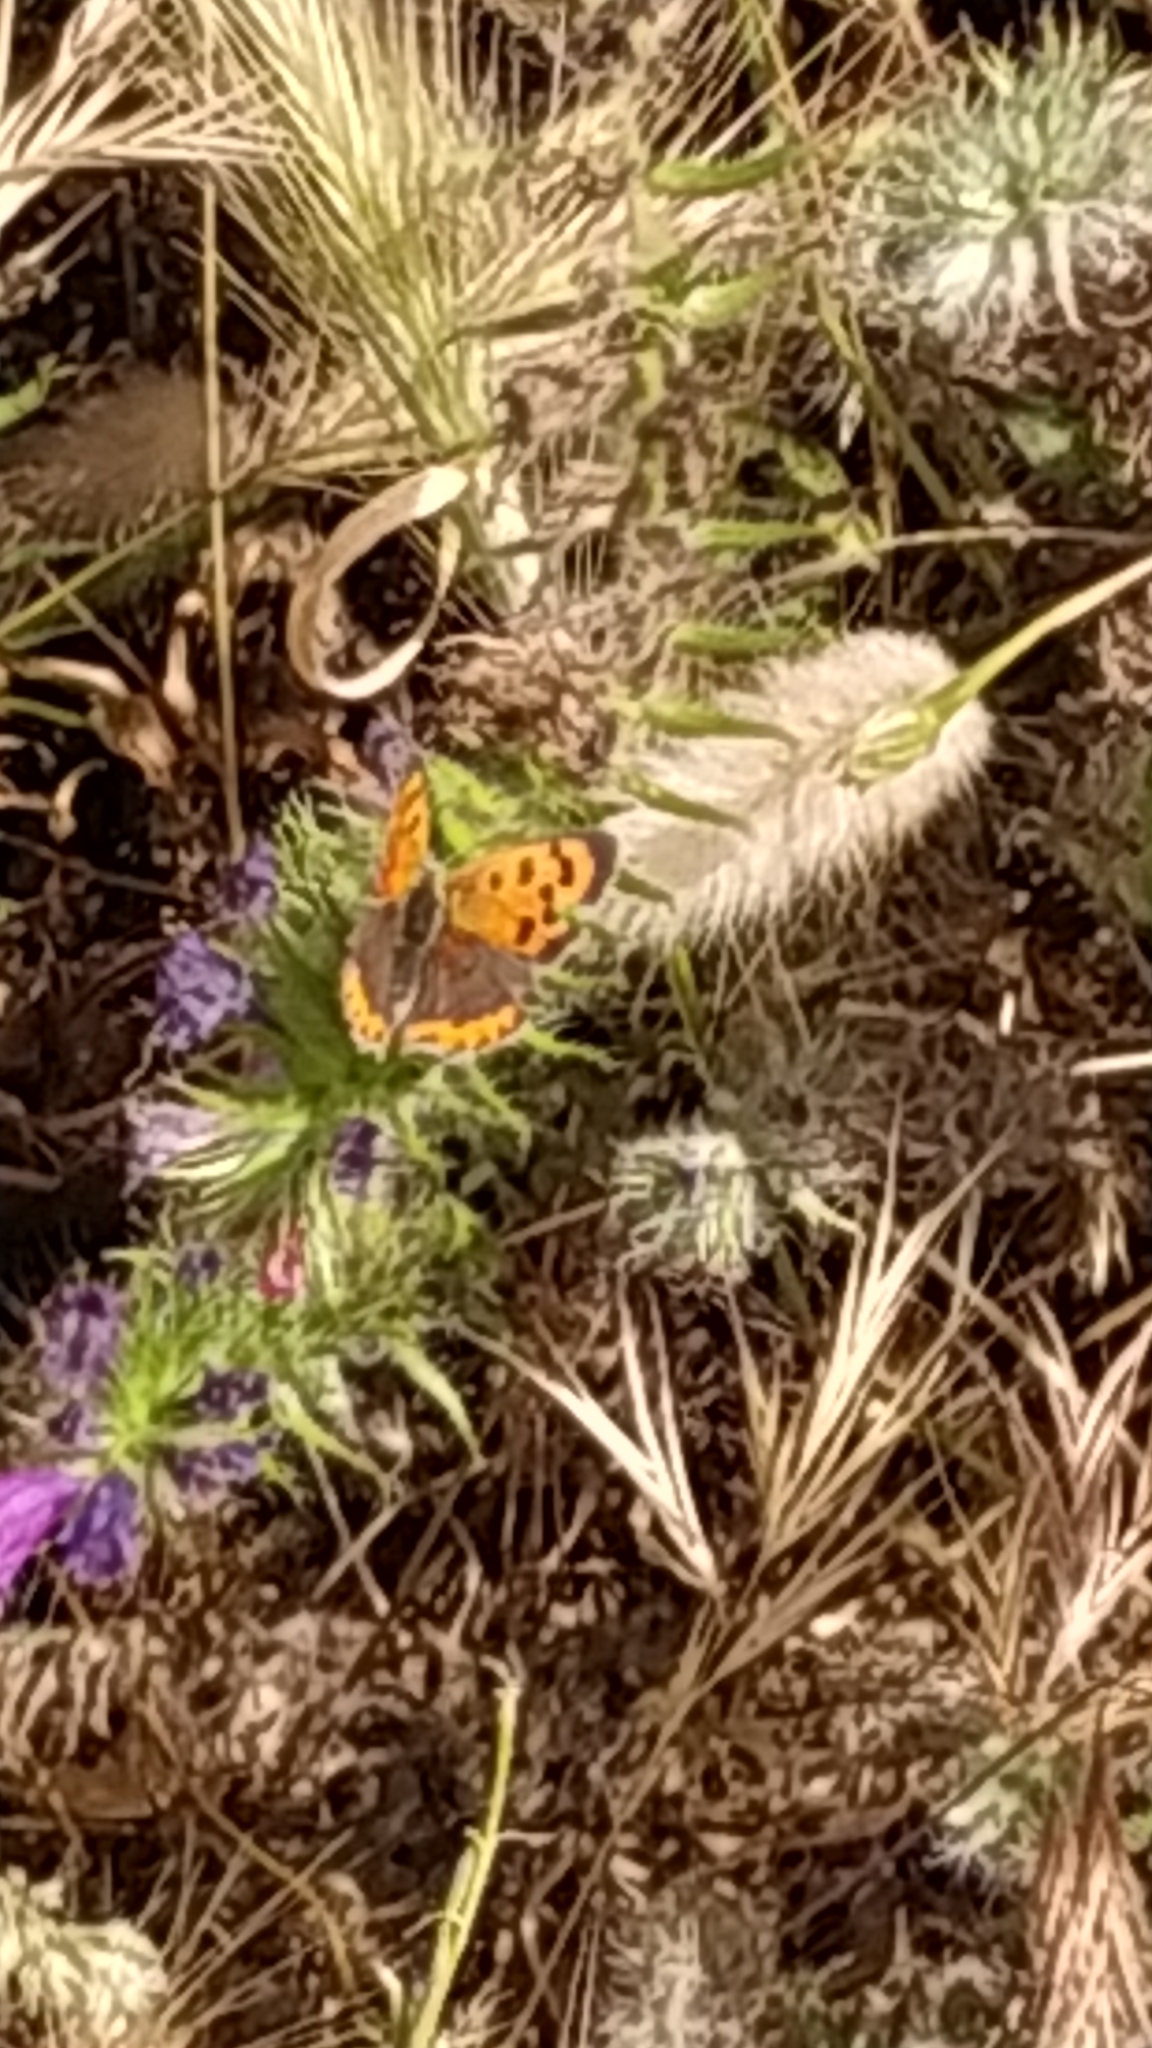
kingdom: Animalia
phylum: Arthropoda
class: Insecta
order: Lepidoptera
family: Lycaenidae
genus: Lycaena
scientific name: Lycaena phlaeas
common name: Small copper
